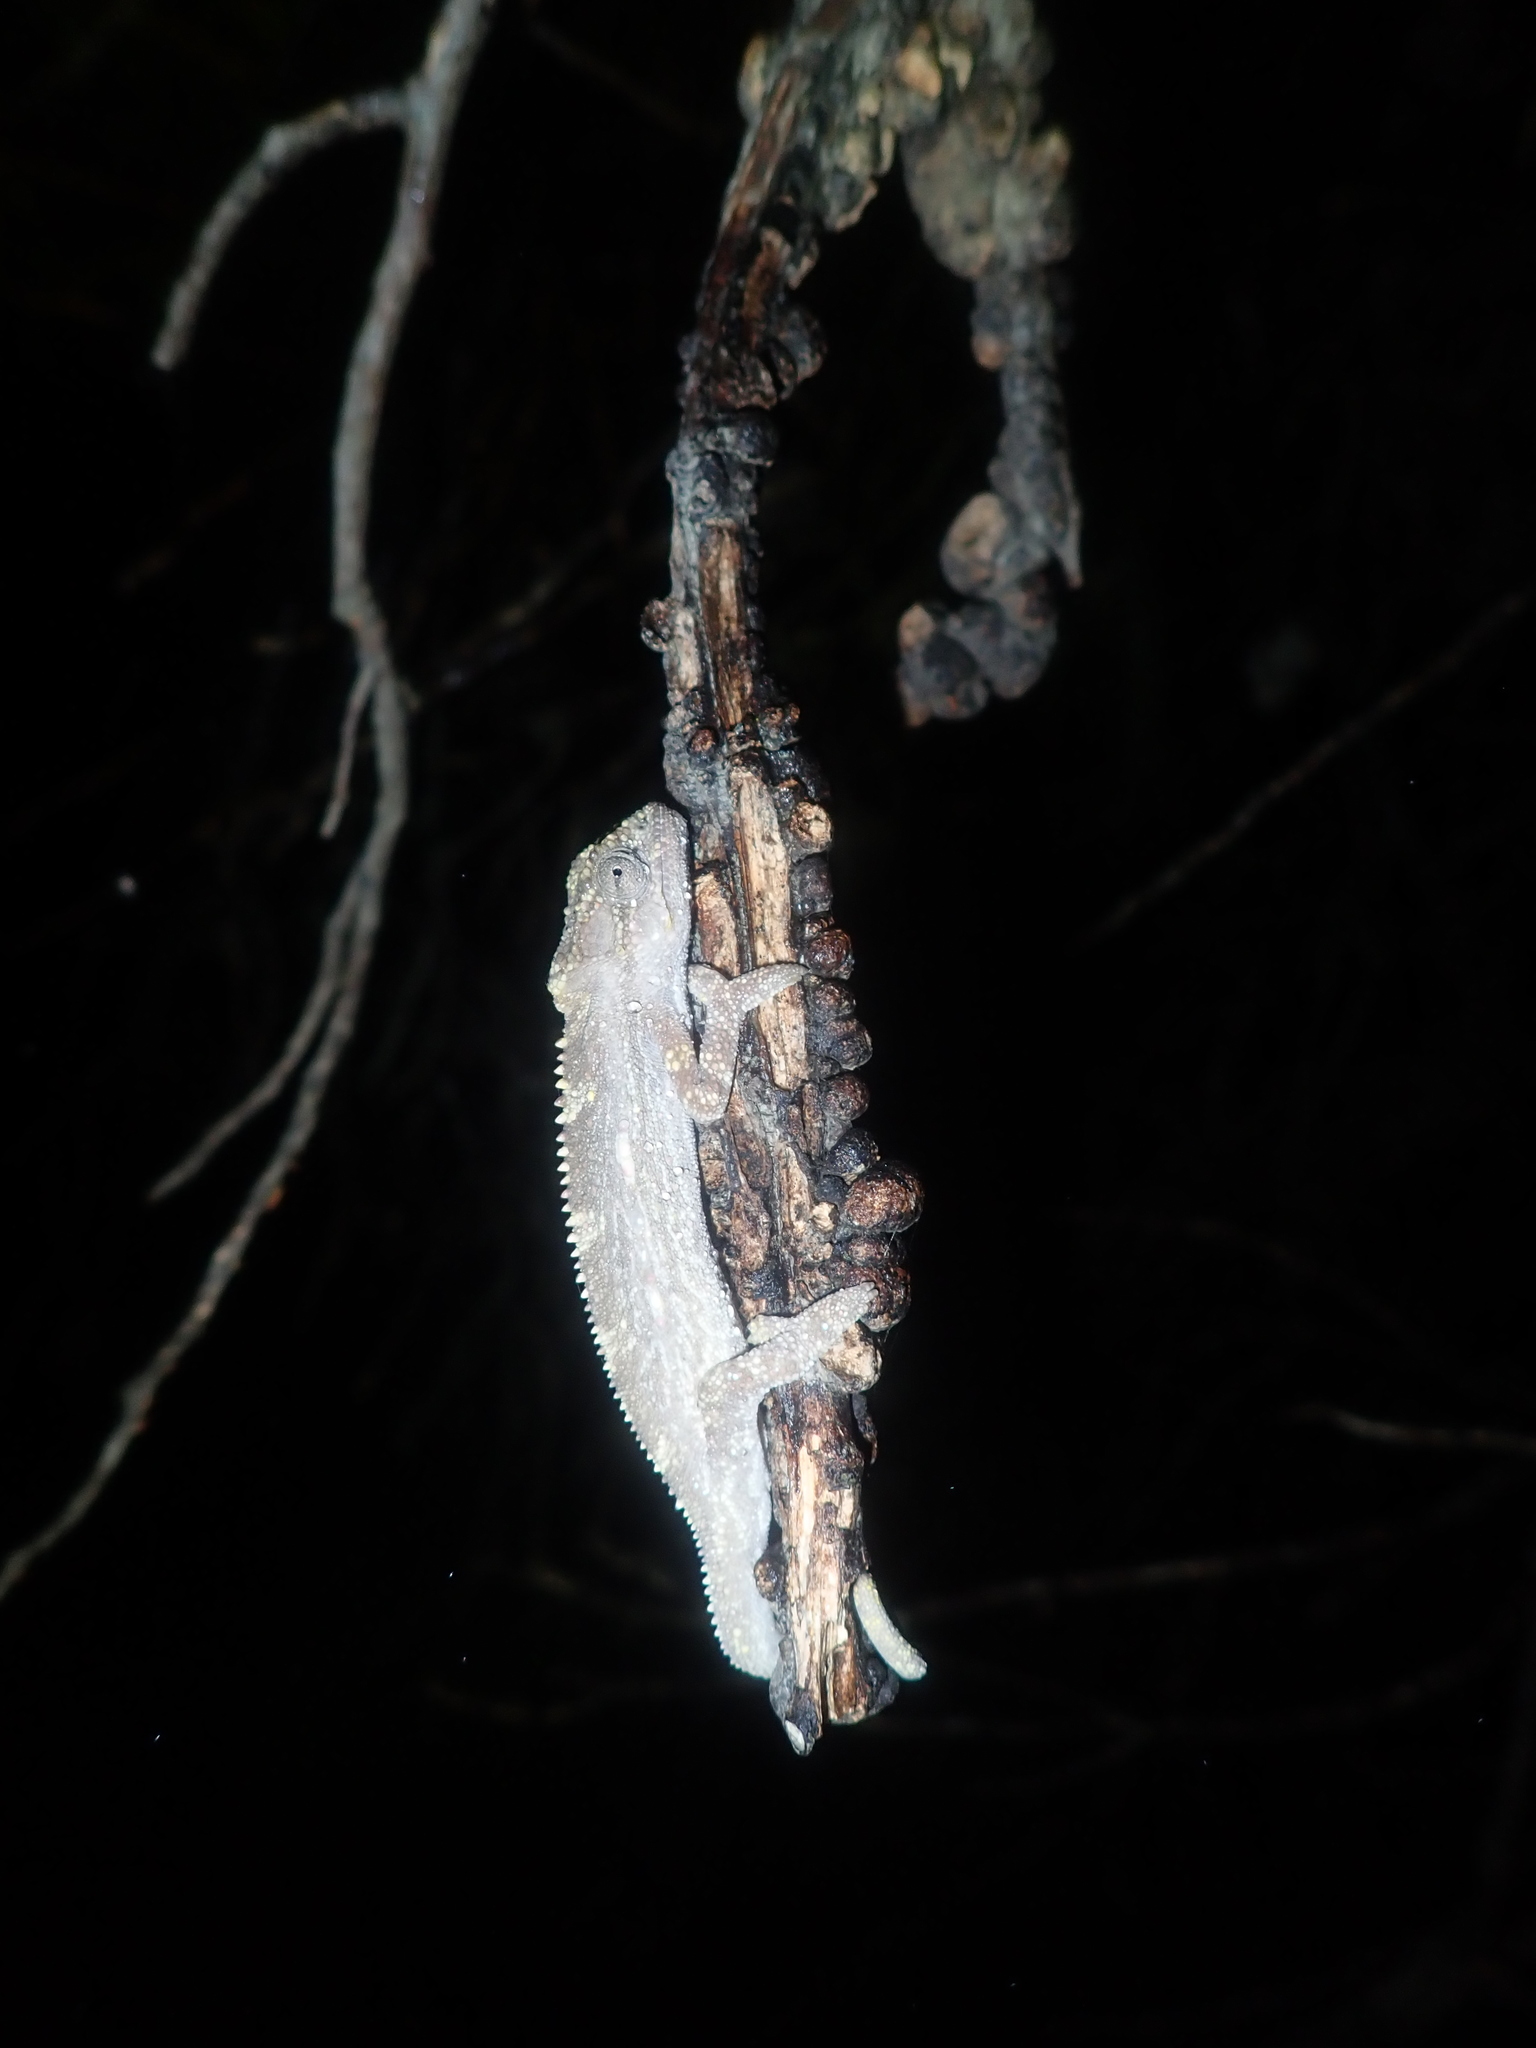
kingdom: Animalia
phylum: Chordata
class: Squamata
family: Chamaeleonidae
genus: Bradypodion
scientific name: Bradypodion pumilum
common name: Cape dwarf chameleon
